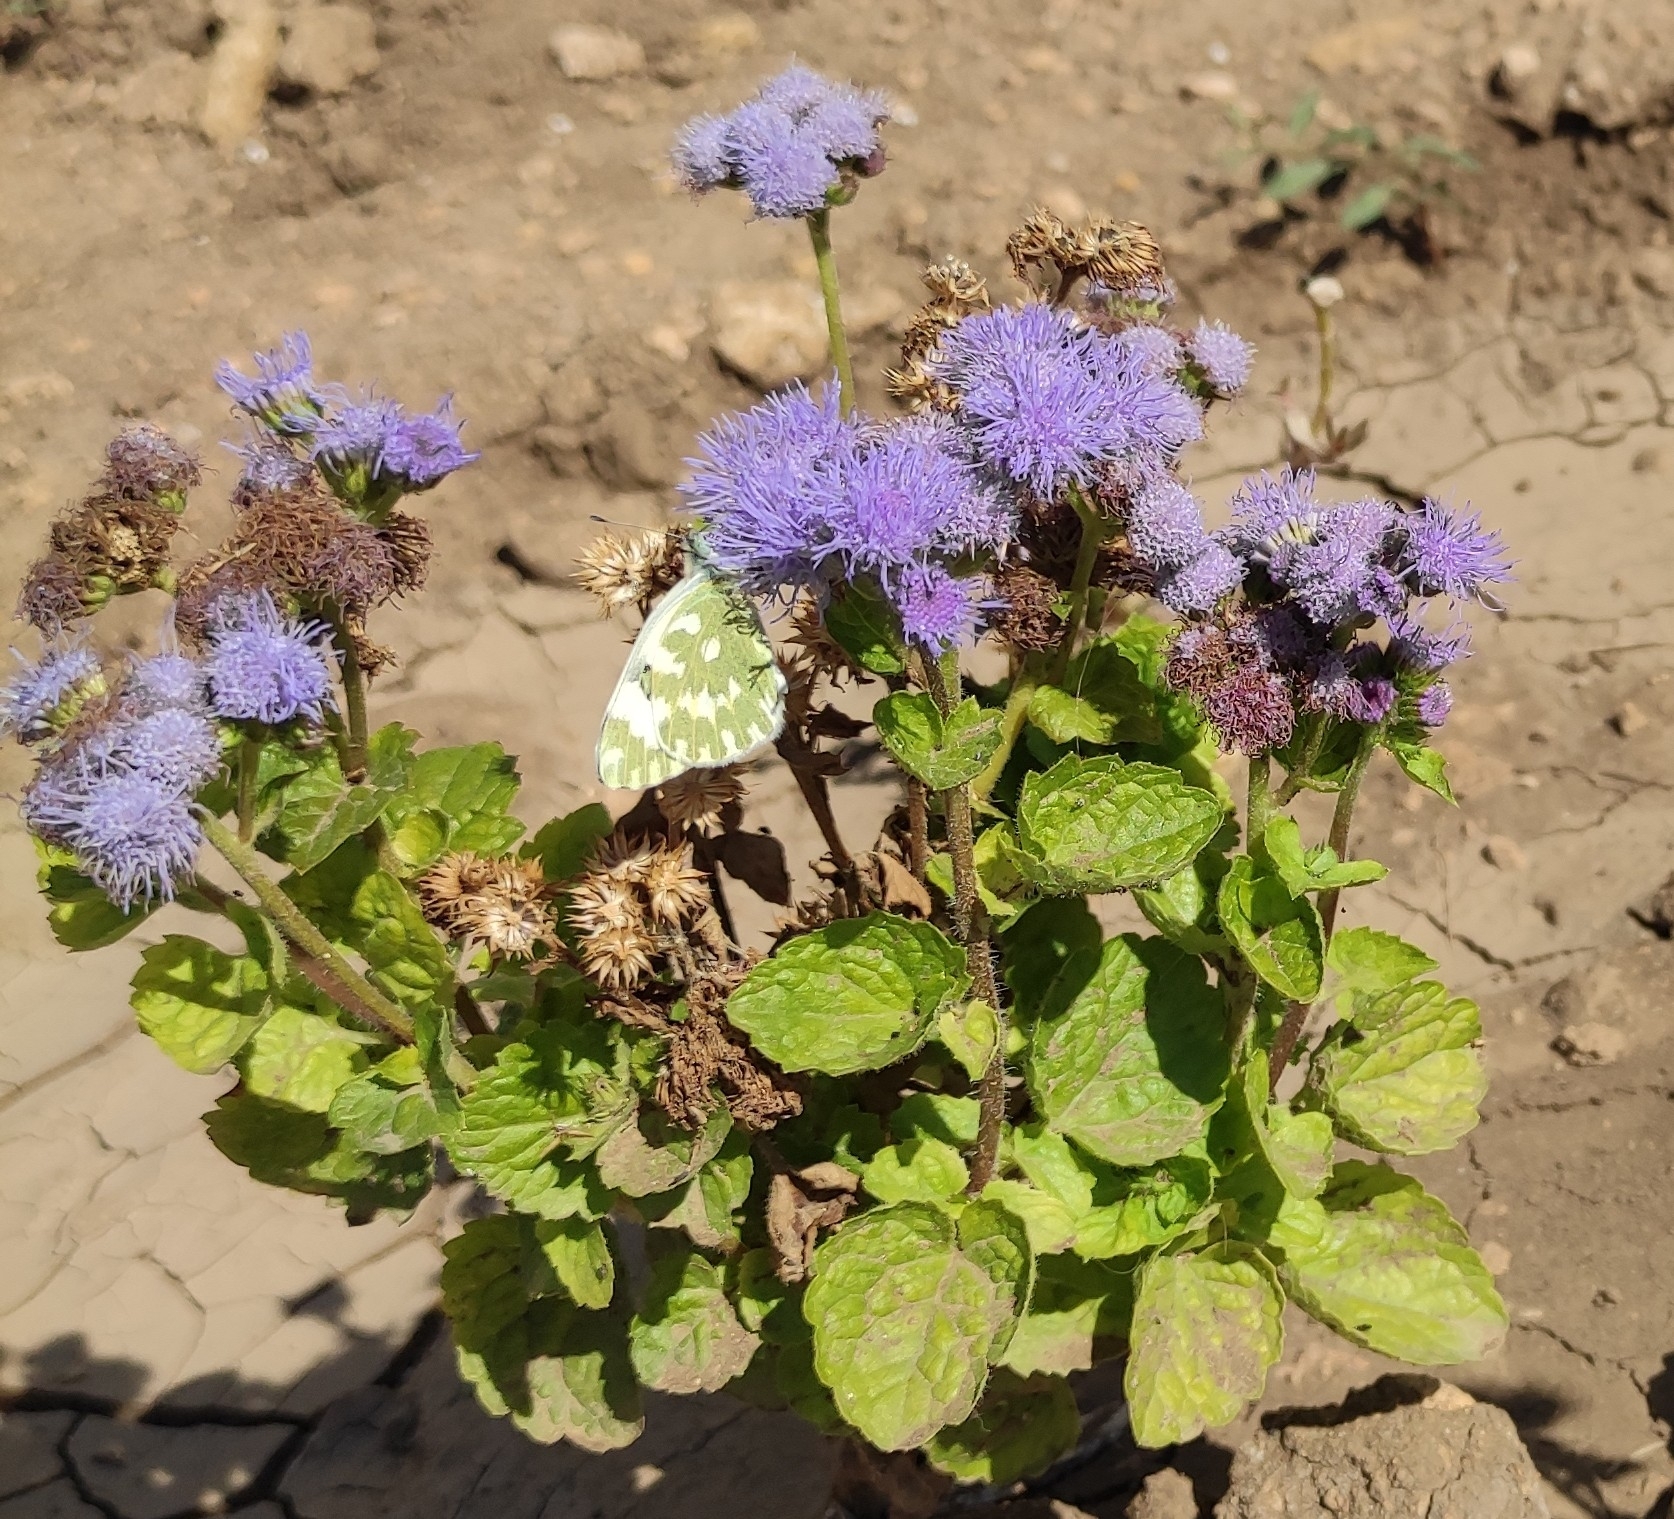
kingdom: Animalia
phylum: Arthropoda
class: Insecta
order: Lepidoptera
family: Pieridae
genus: Pontia
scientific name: Pontia edusa
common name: Eastern bath white
